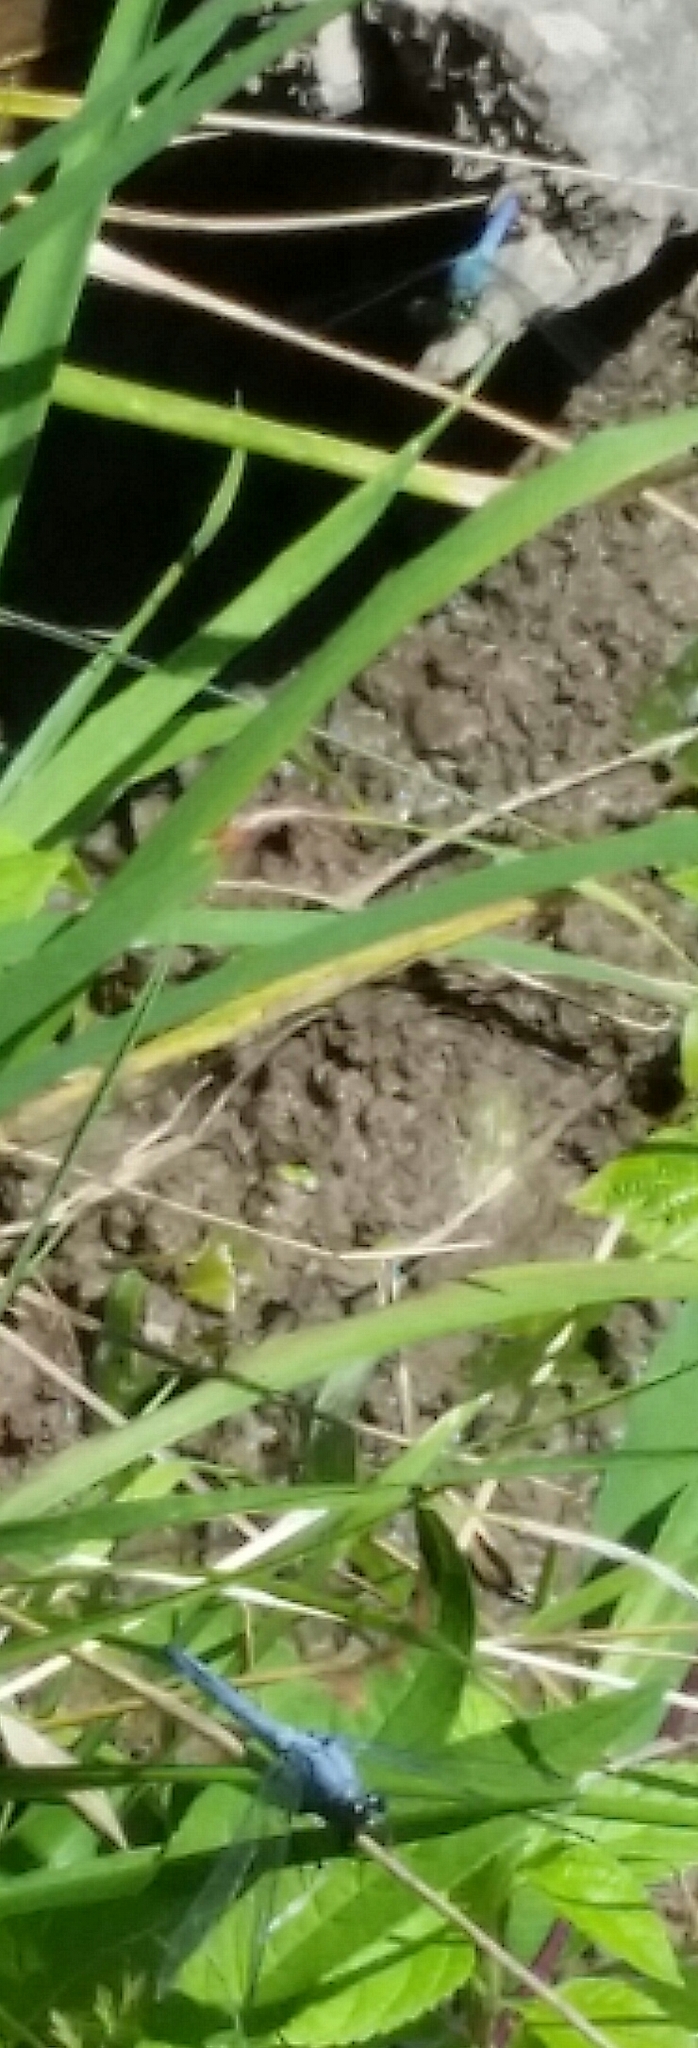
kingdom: Animalia
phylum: Arthropoda
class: Insecta
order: Odonata
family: Libellulidae
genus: Erythemis
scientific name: Erythemis simplicicollis
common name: Eastern pondhawk
